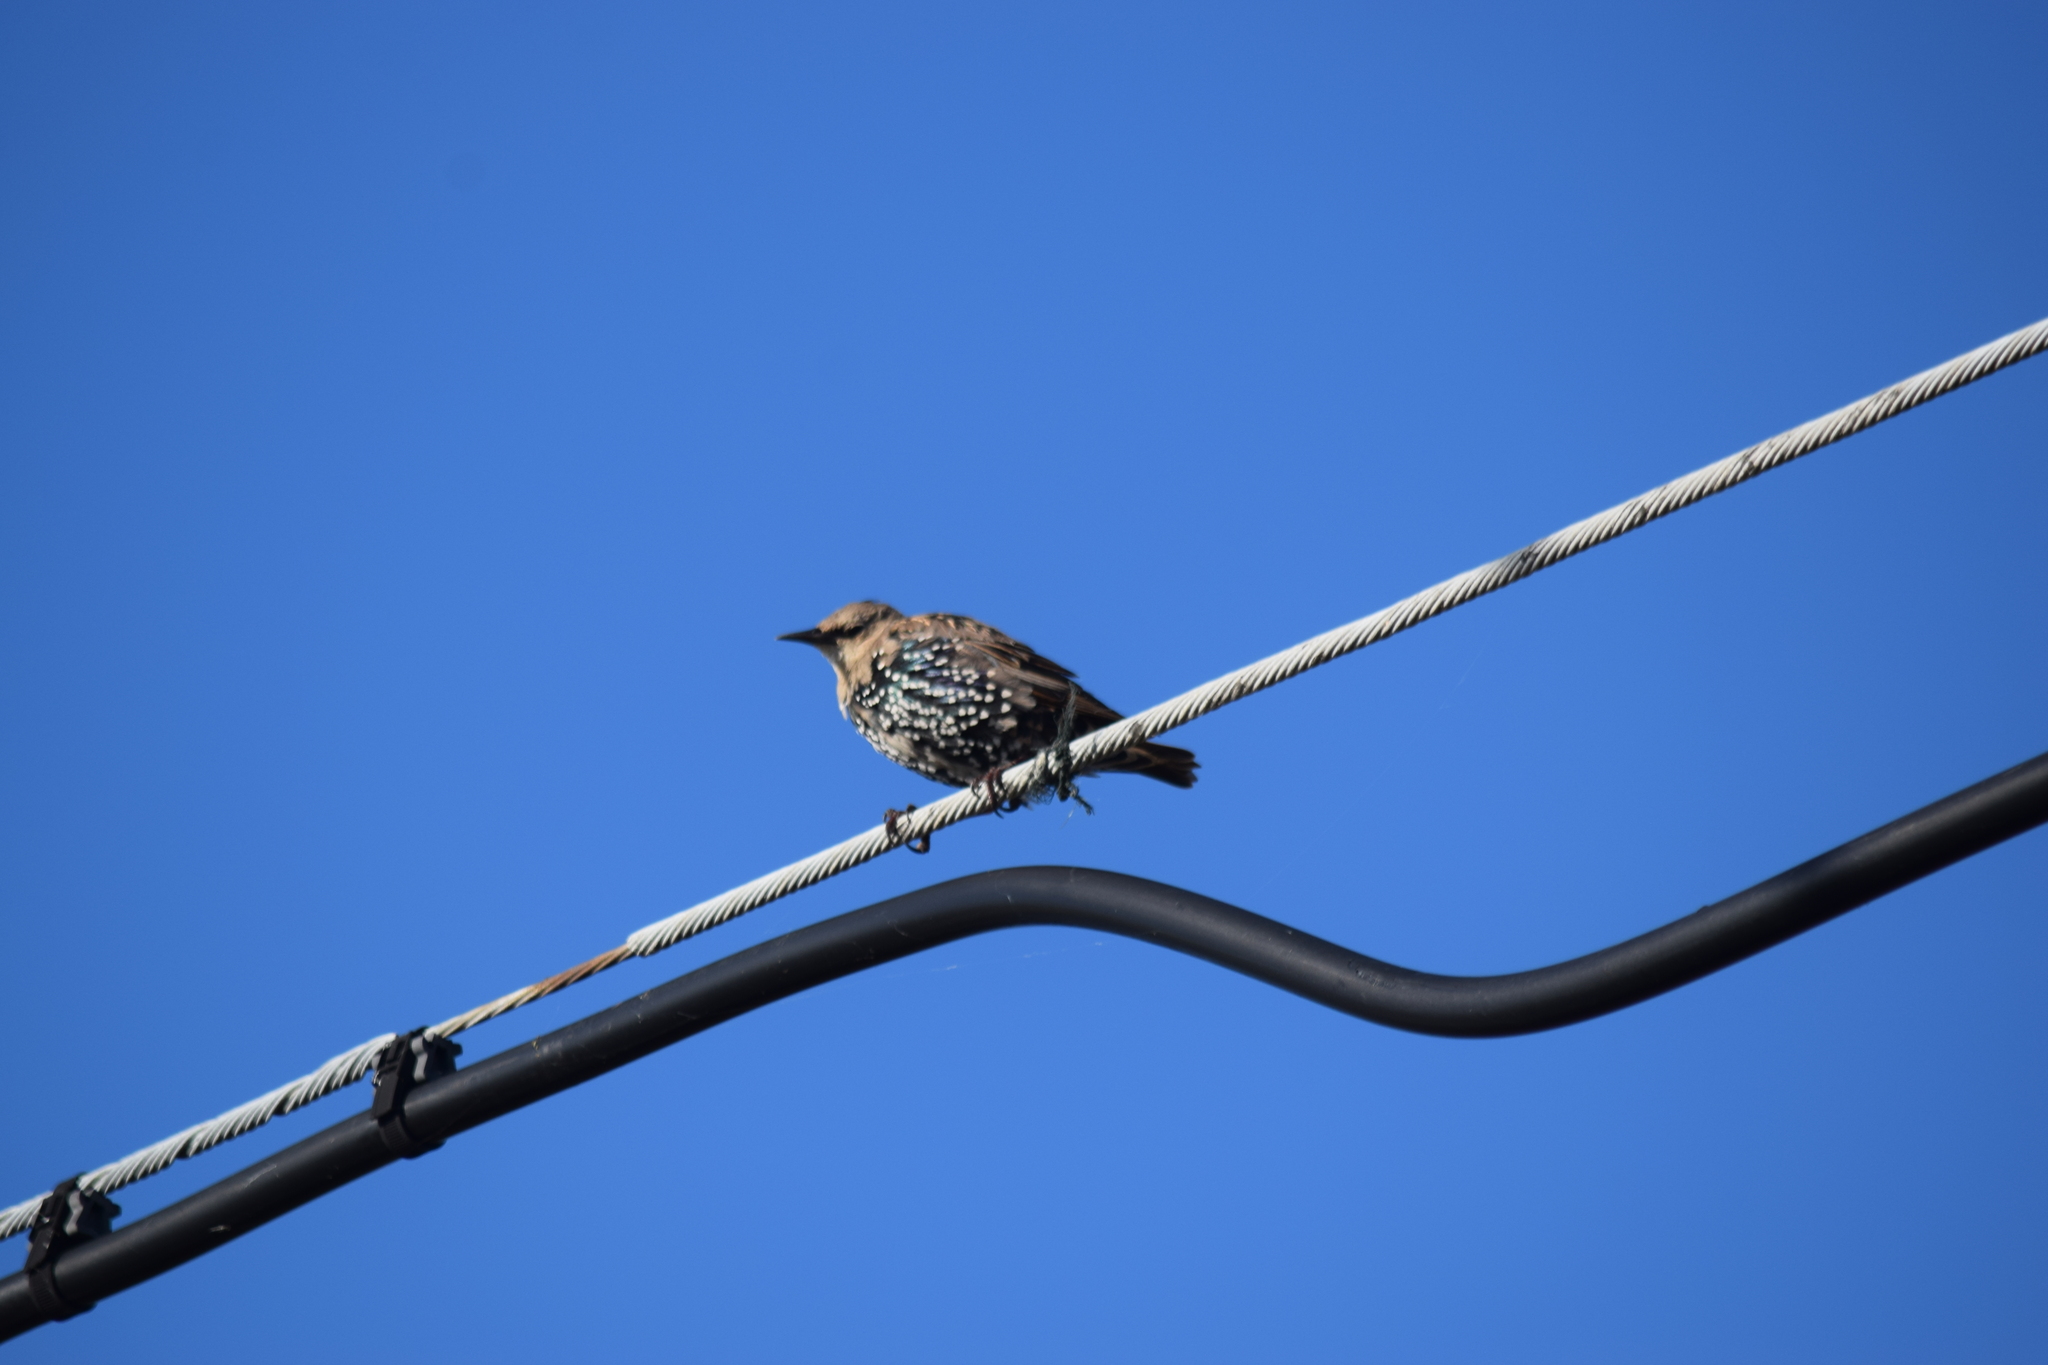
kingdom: Animalia
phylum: Chordata
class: Aves
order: Passeriformes
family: Sturnidae
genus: Sturnus
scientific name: Sturnus vulgaris
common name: Common starling
